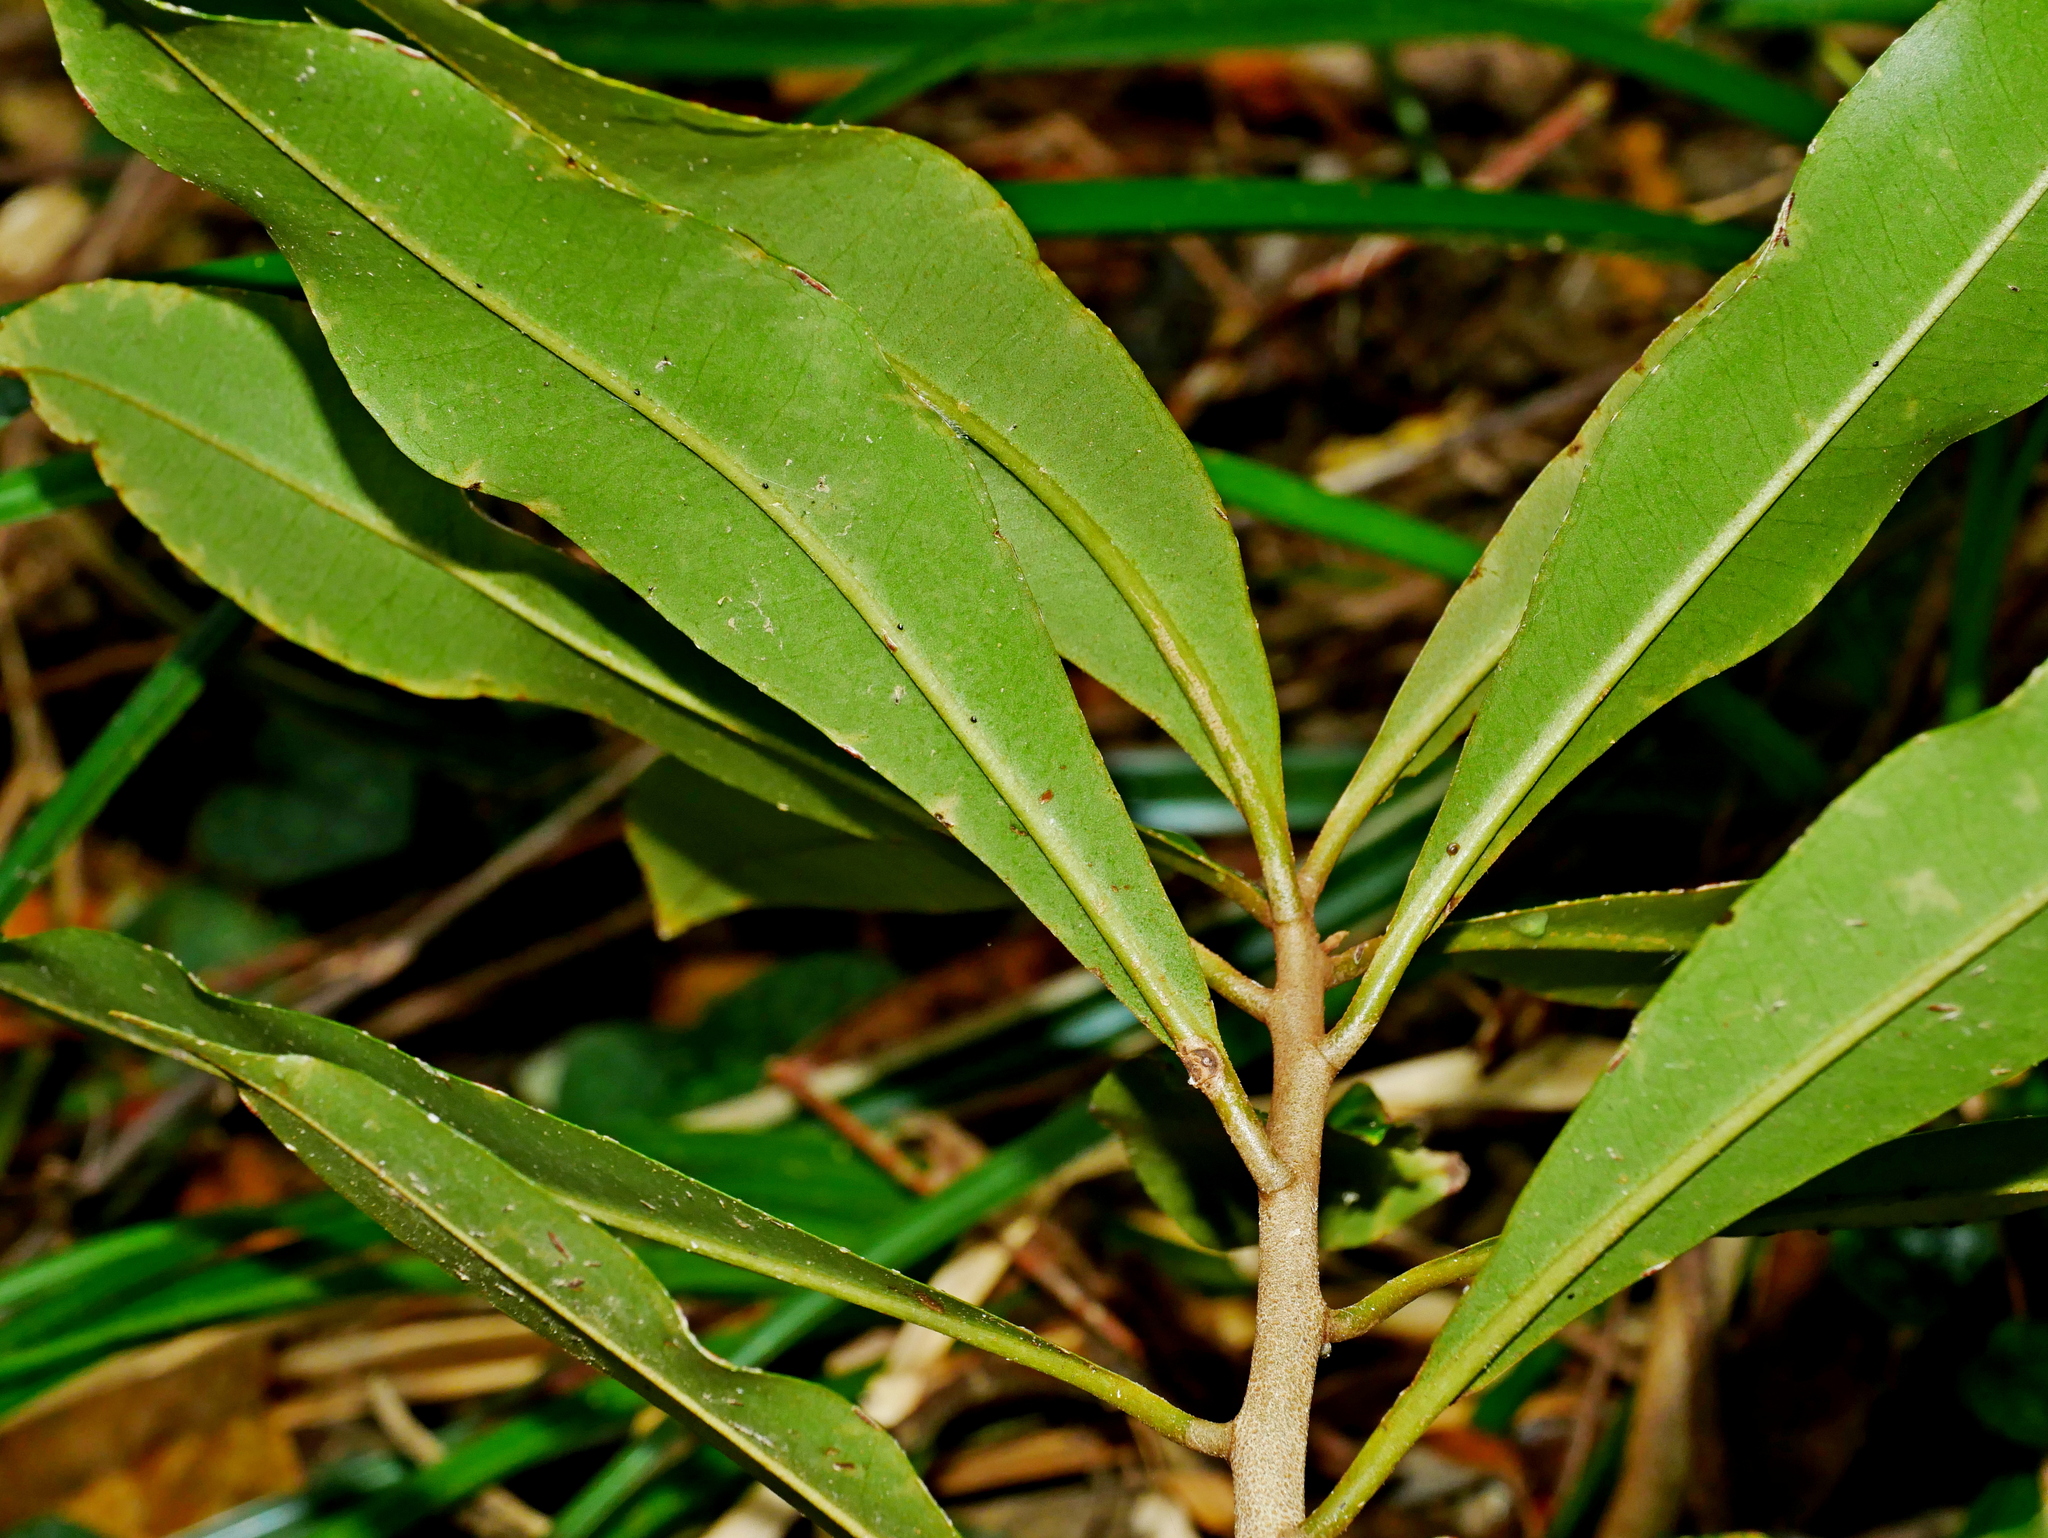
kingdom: Plantae
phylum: Tracheophyta
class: Magnoliopsida
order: Ericales
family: Primulaceae
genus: Ardisia
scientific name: Ardisia sieboldii
